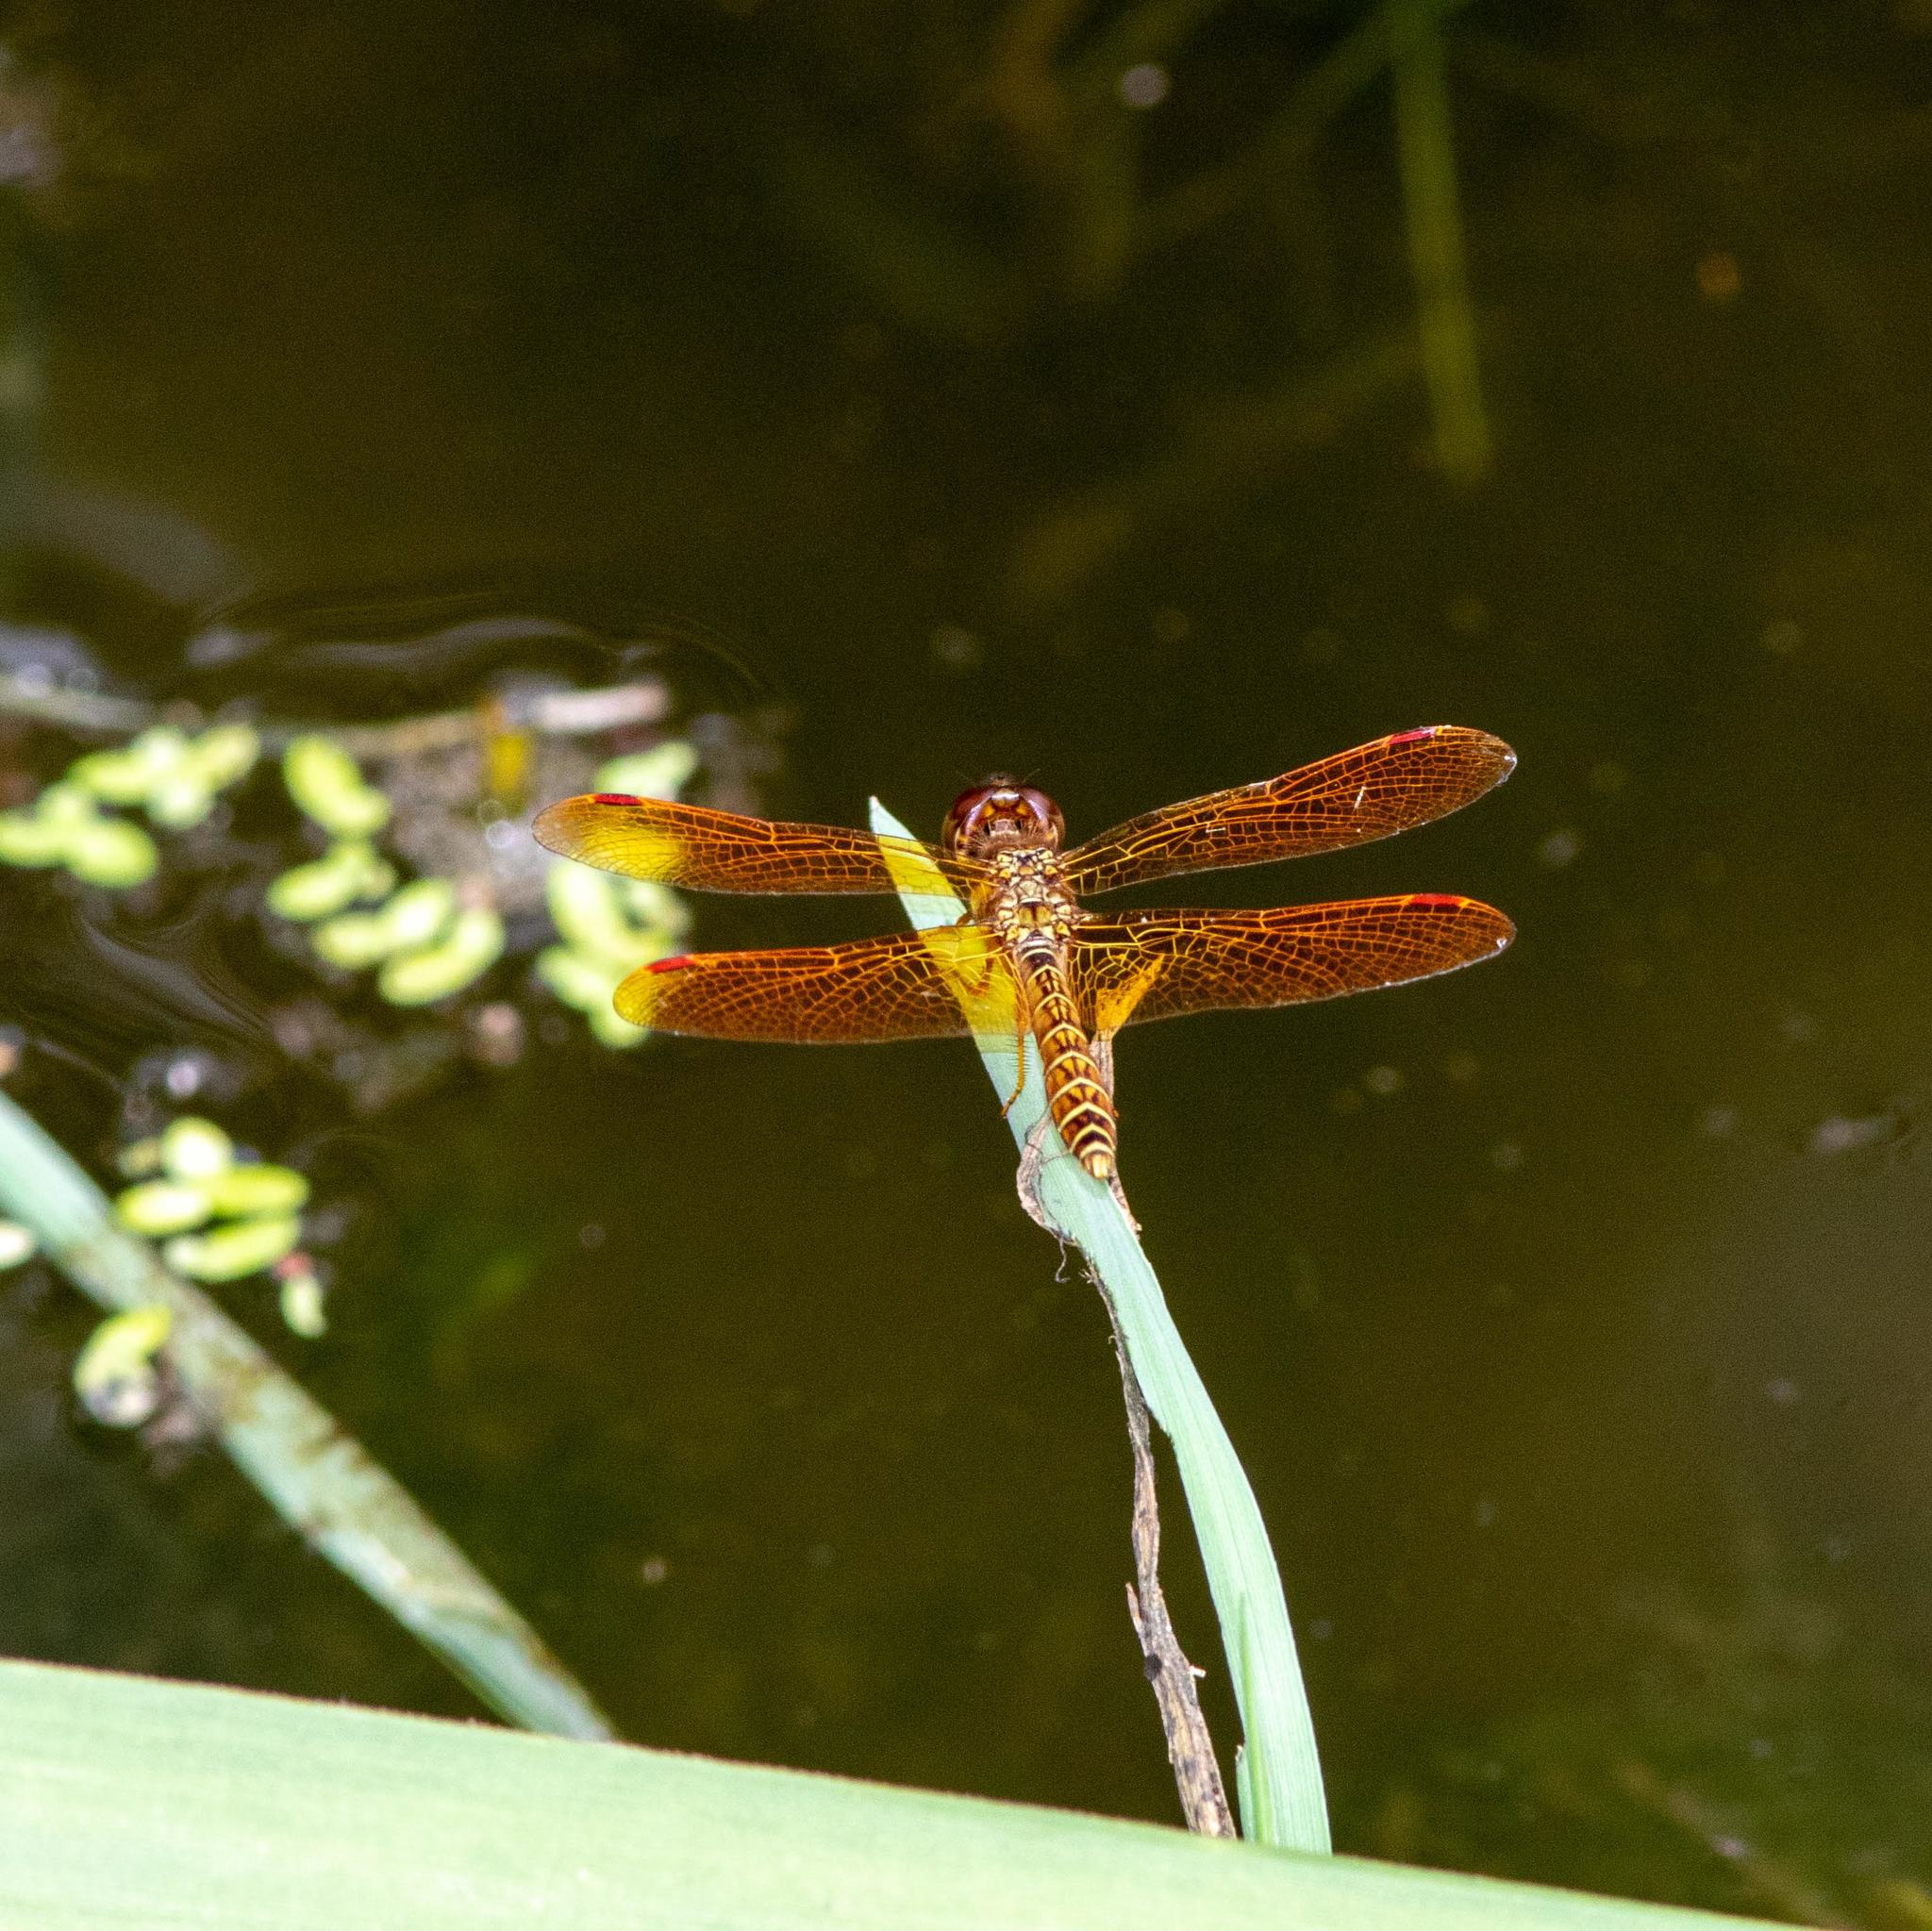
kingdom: Animalia
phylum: Arthropoda
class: Insecta
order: Odonata
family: Libellulidae
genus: Perithemis
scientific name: Perithemis tenera
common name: Eastern amberwing
